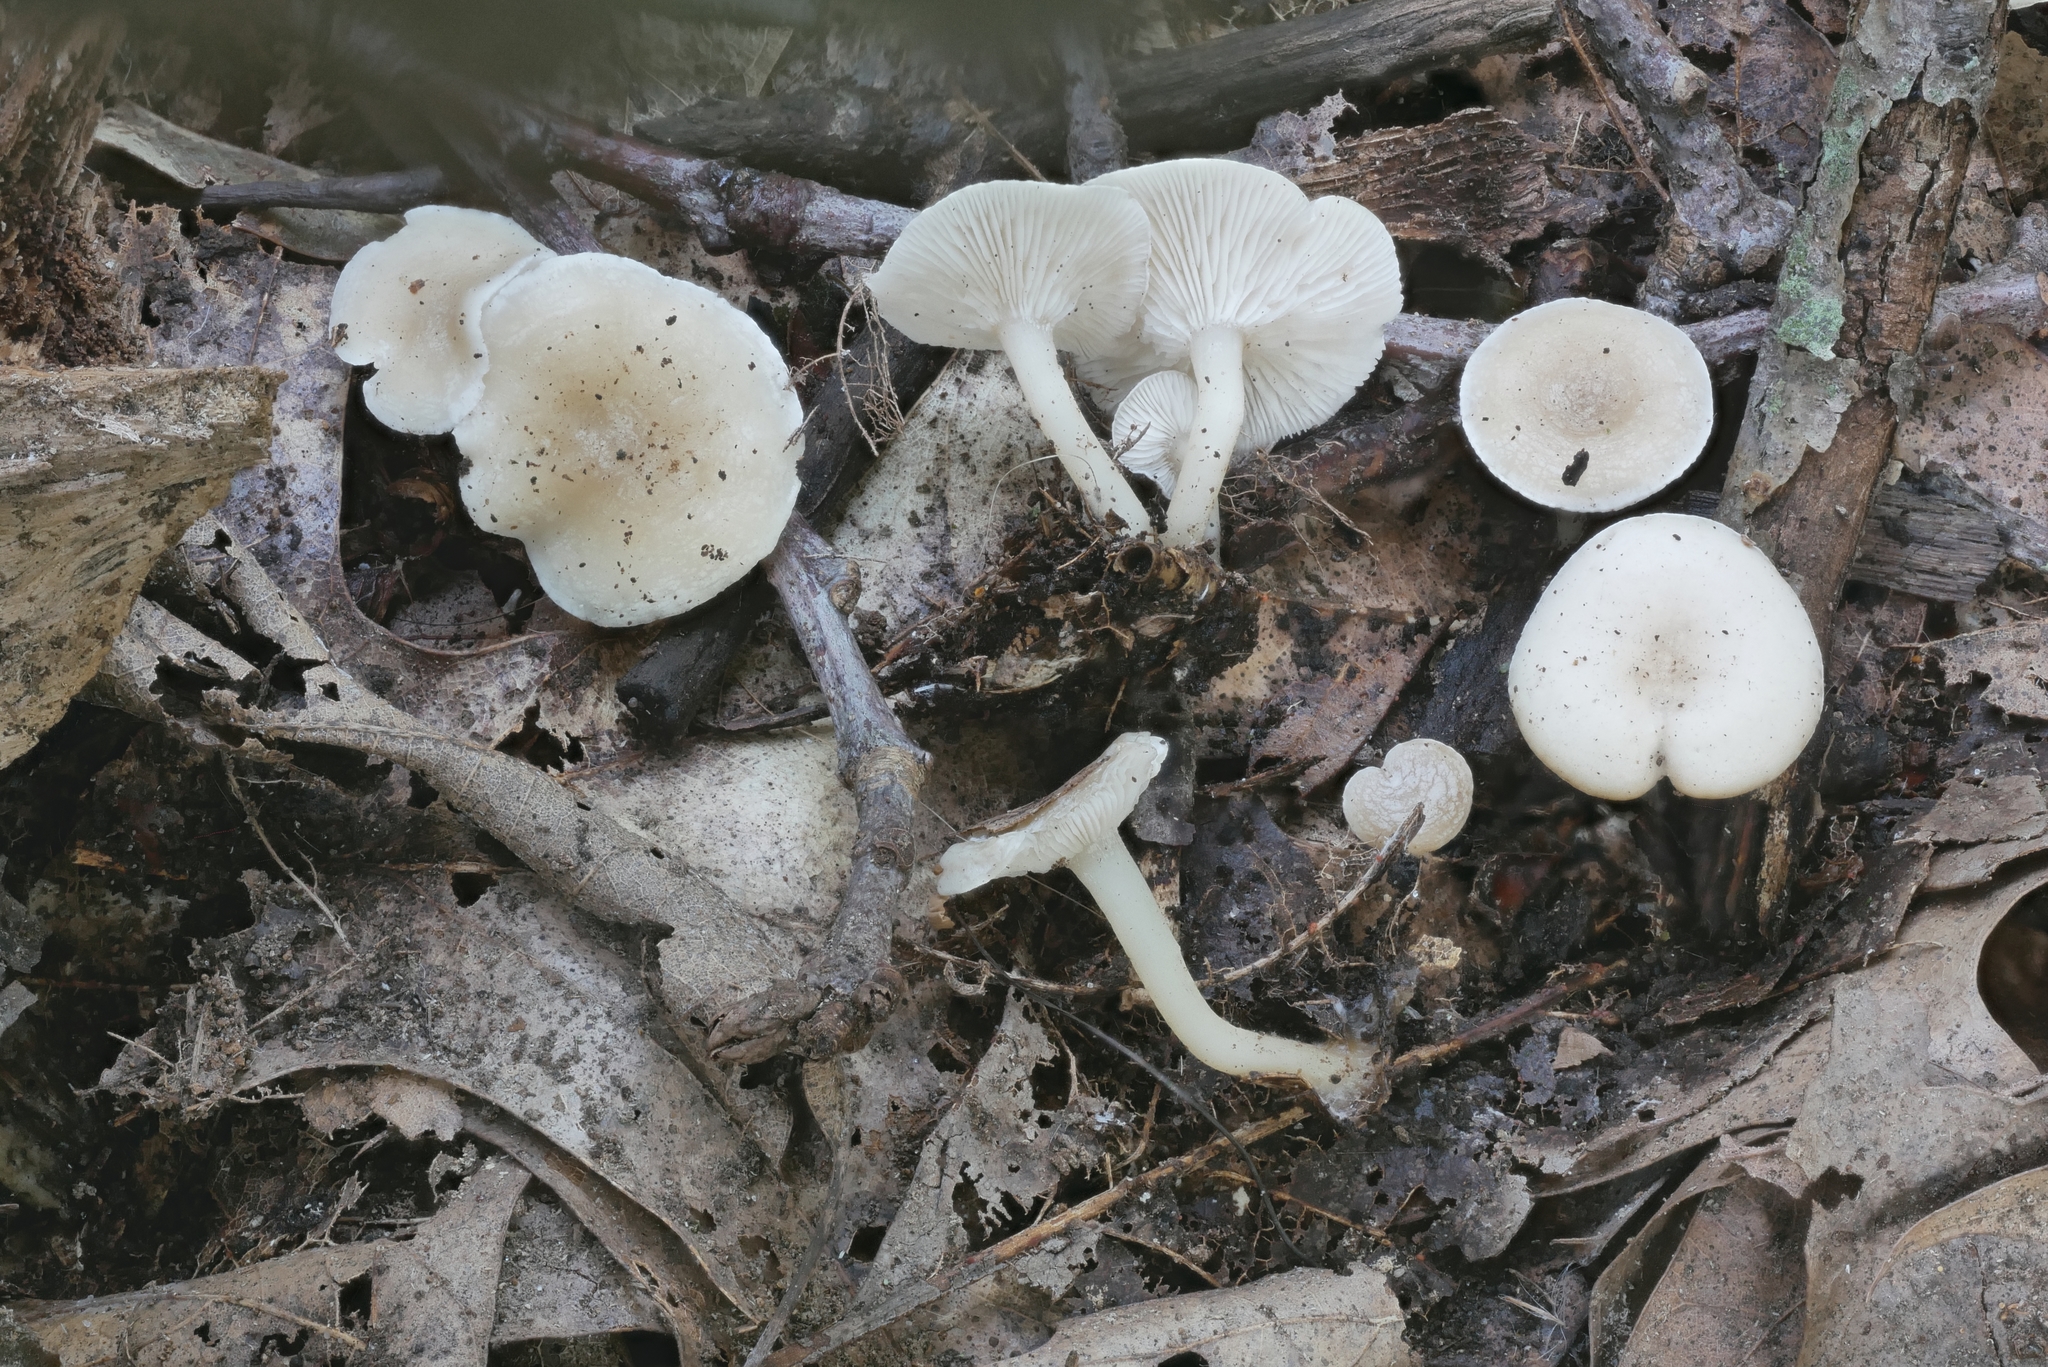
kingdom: Fungi
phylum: Basidiomycota
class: Agaricomycetes
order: Agaricales
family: Tricholomataceae
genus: Leucocybe
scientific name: Leucocybe candicans
